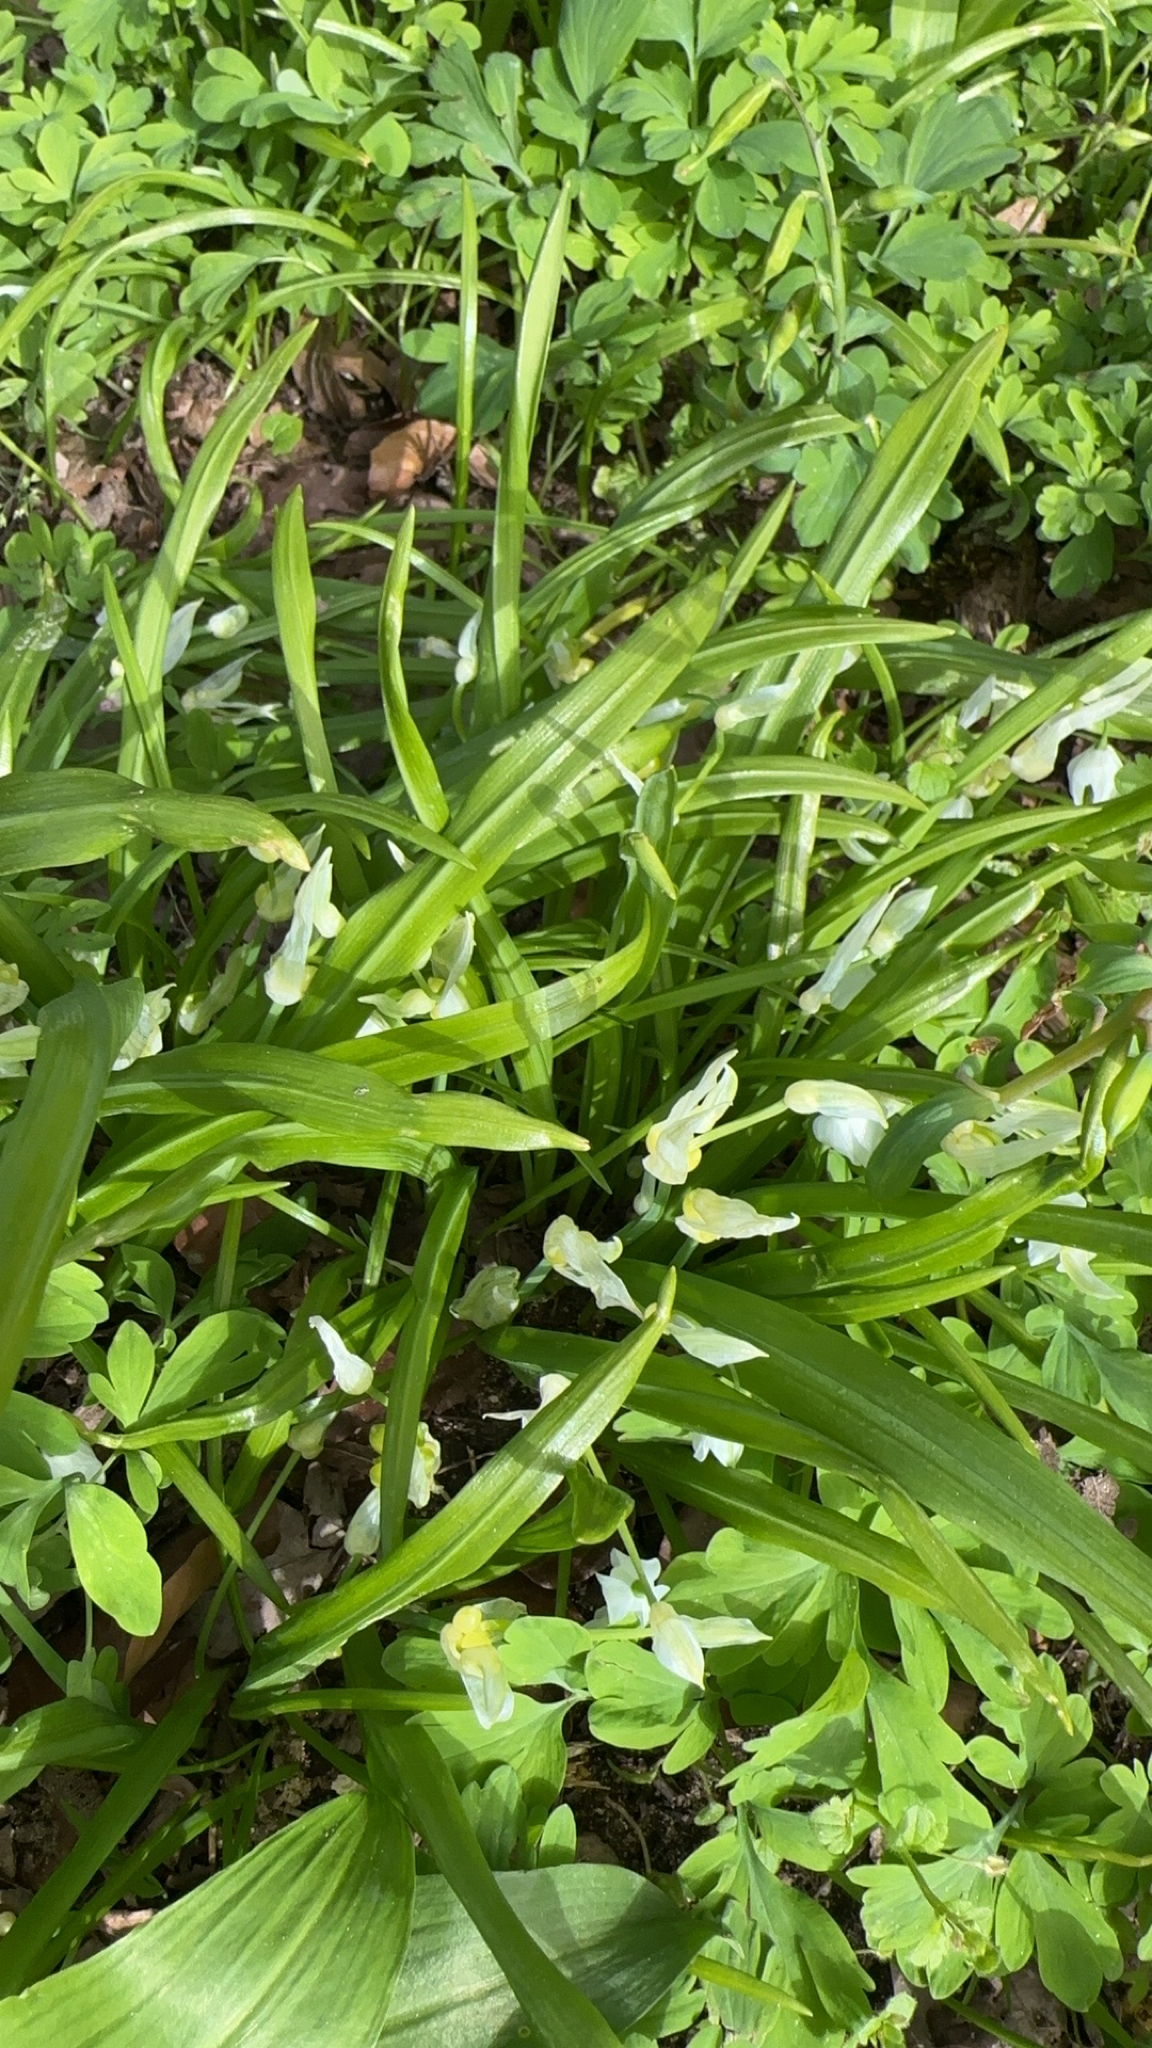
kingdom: Plantae
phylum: Tracheophyta
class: Liliopsida
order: Asparagales
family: Amaryllidaceae
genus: Allium
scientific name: Allium paradoxum
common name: Few-flowered garlic
